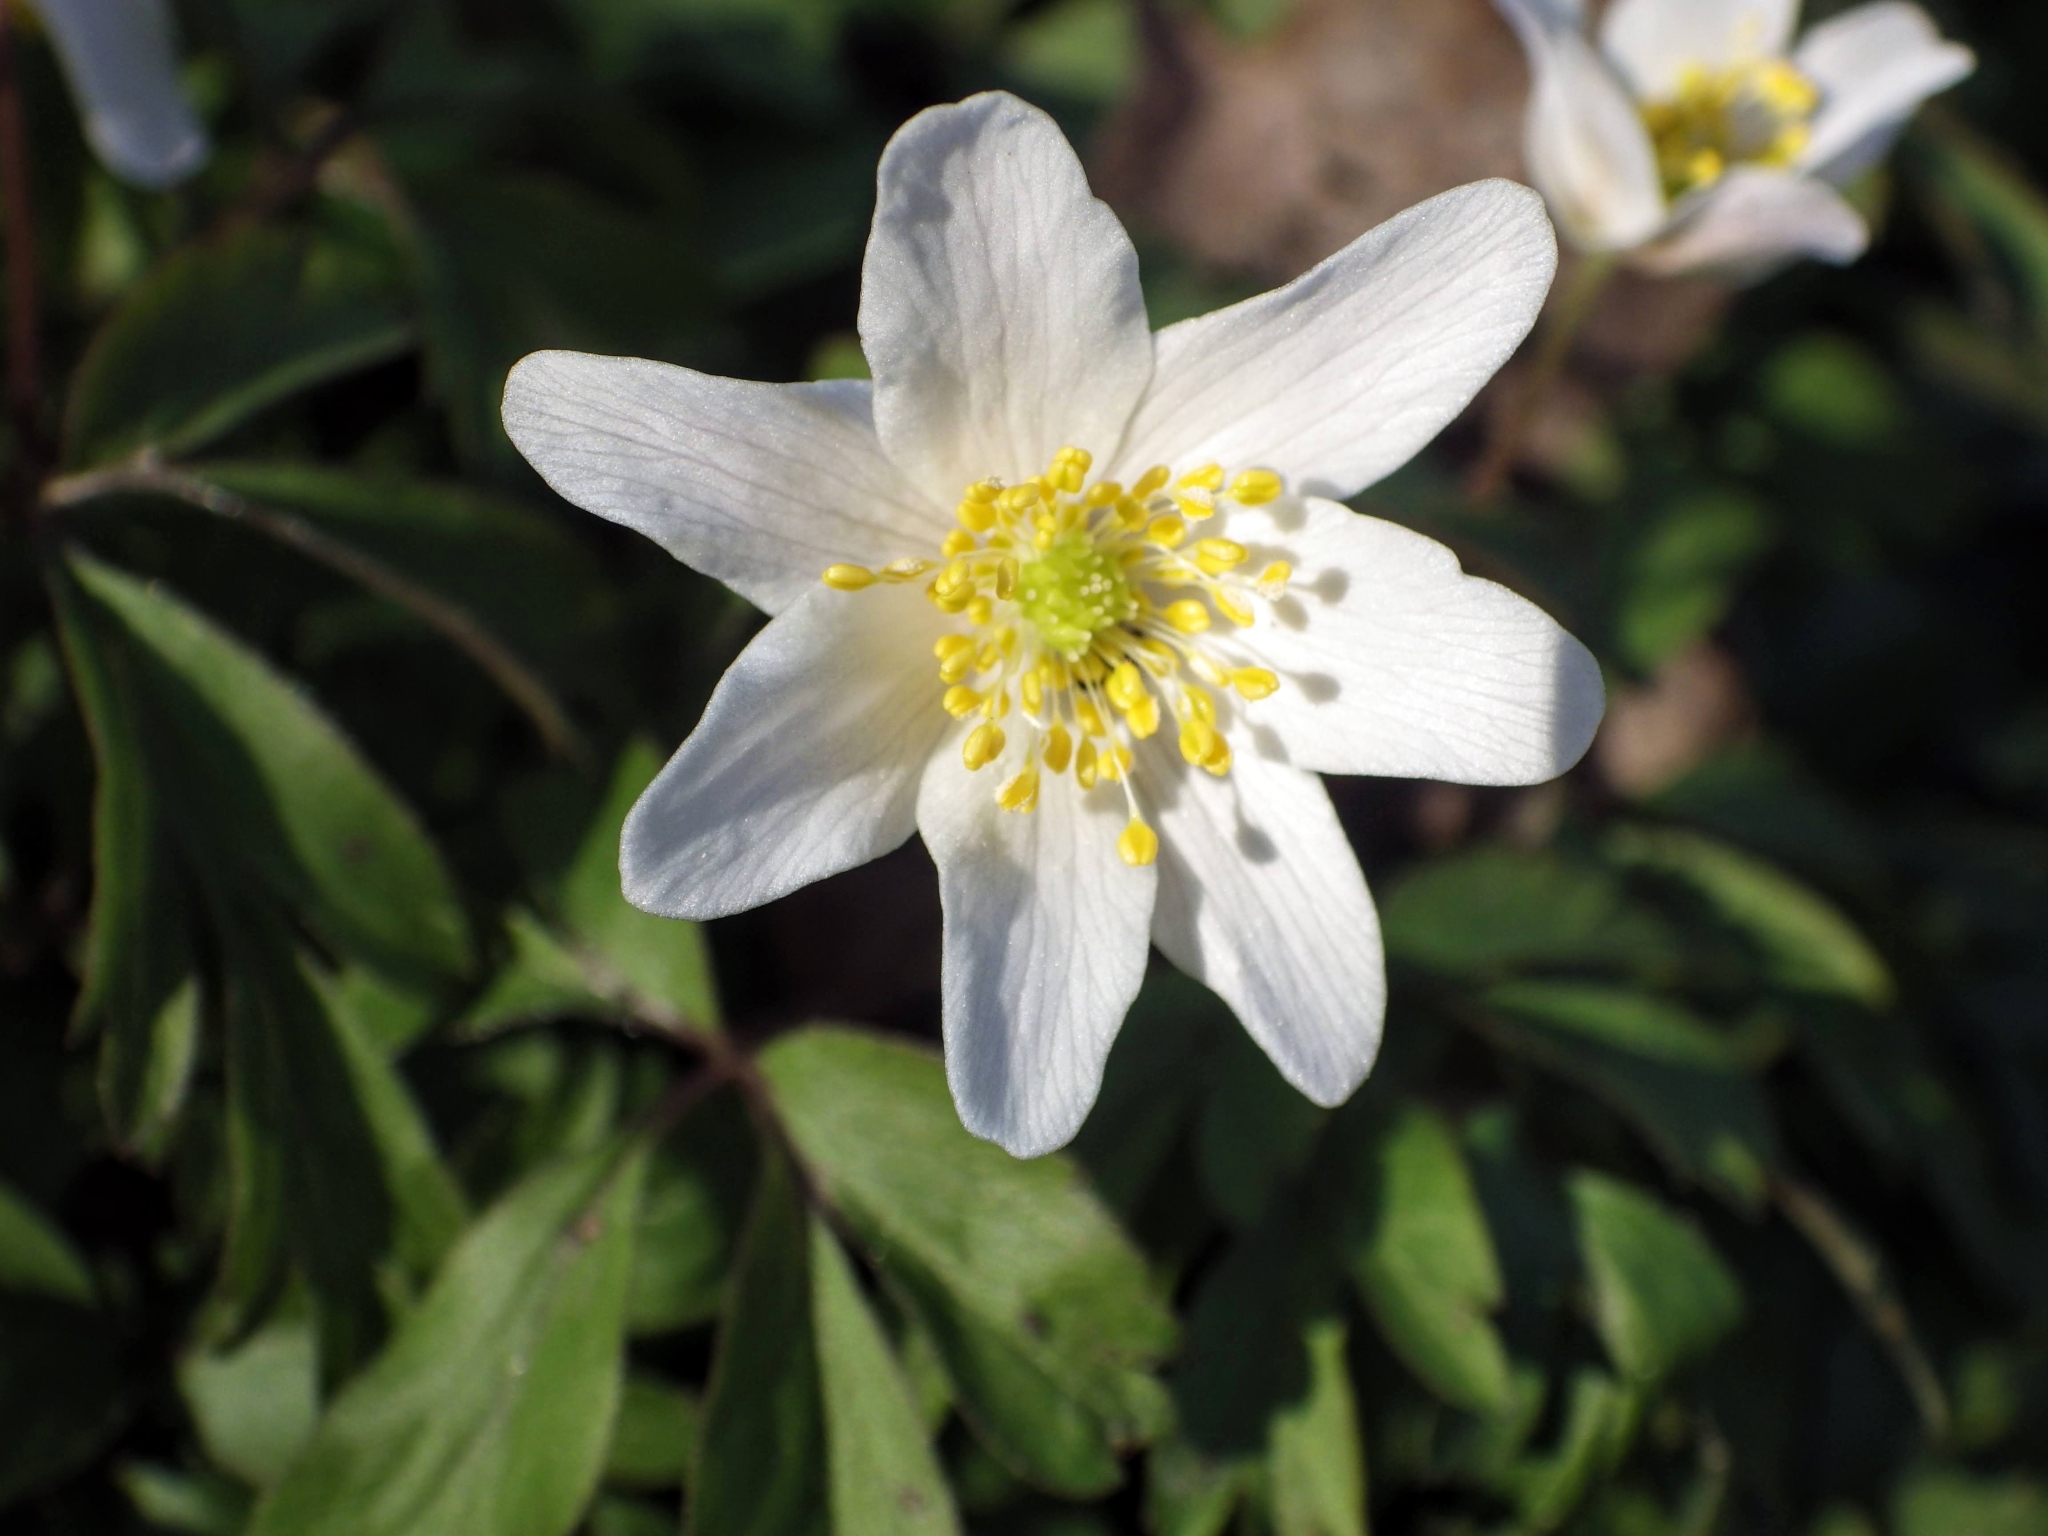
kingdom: Plantae
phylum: Tracheophyta
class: Magnoliopsida
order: Ranunculales
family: Ranunculaceae
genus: Anemone
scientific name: Anemone nemorosa
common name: Wood anemone
